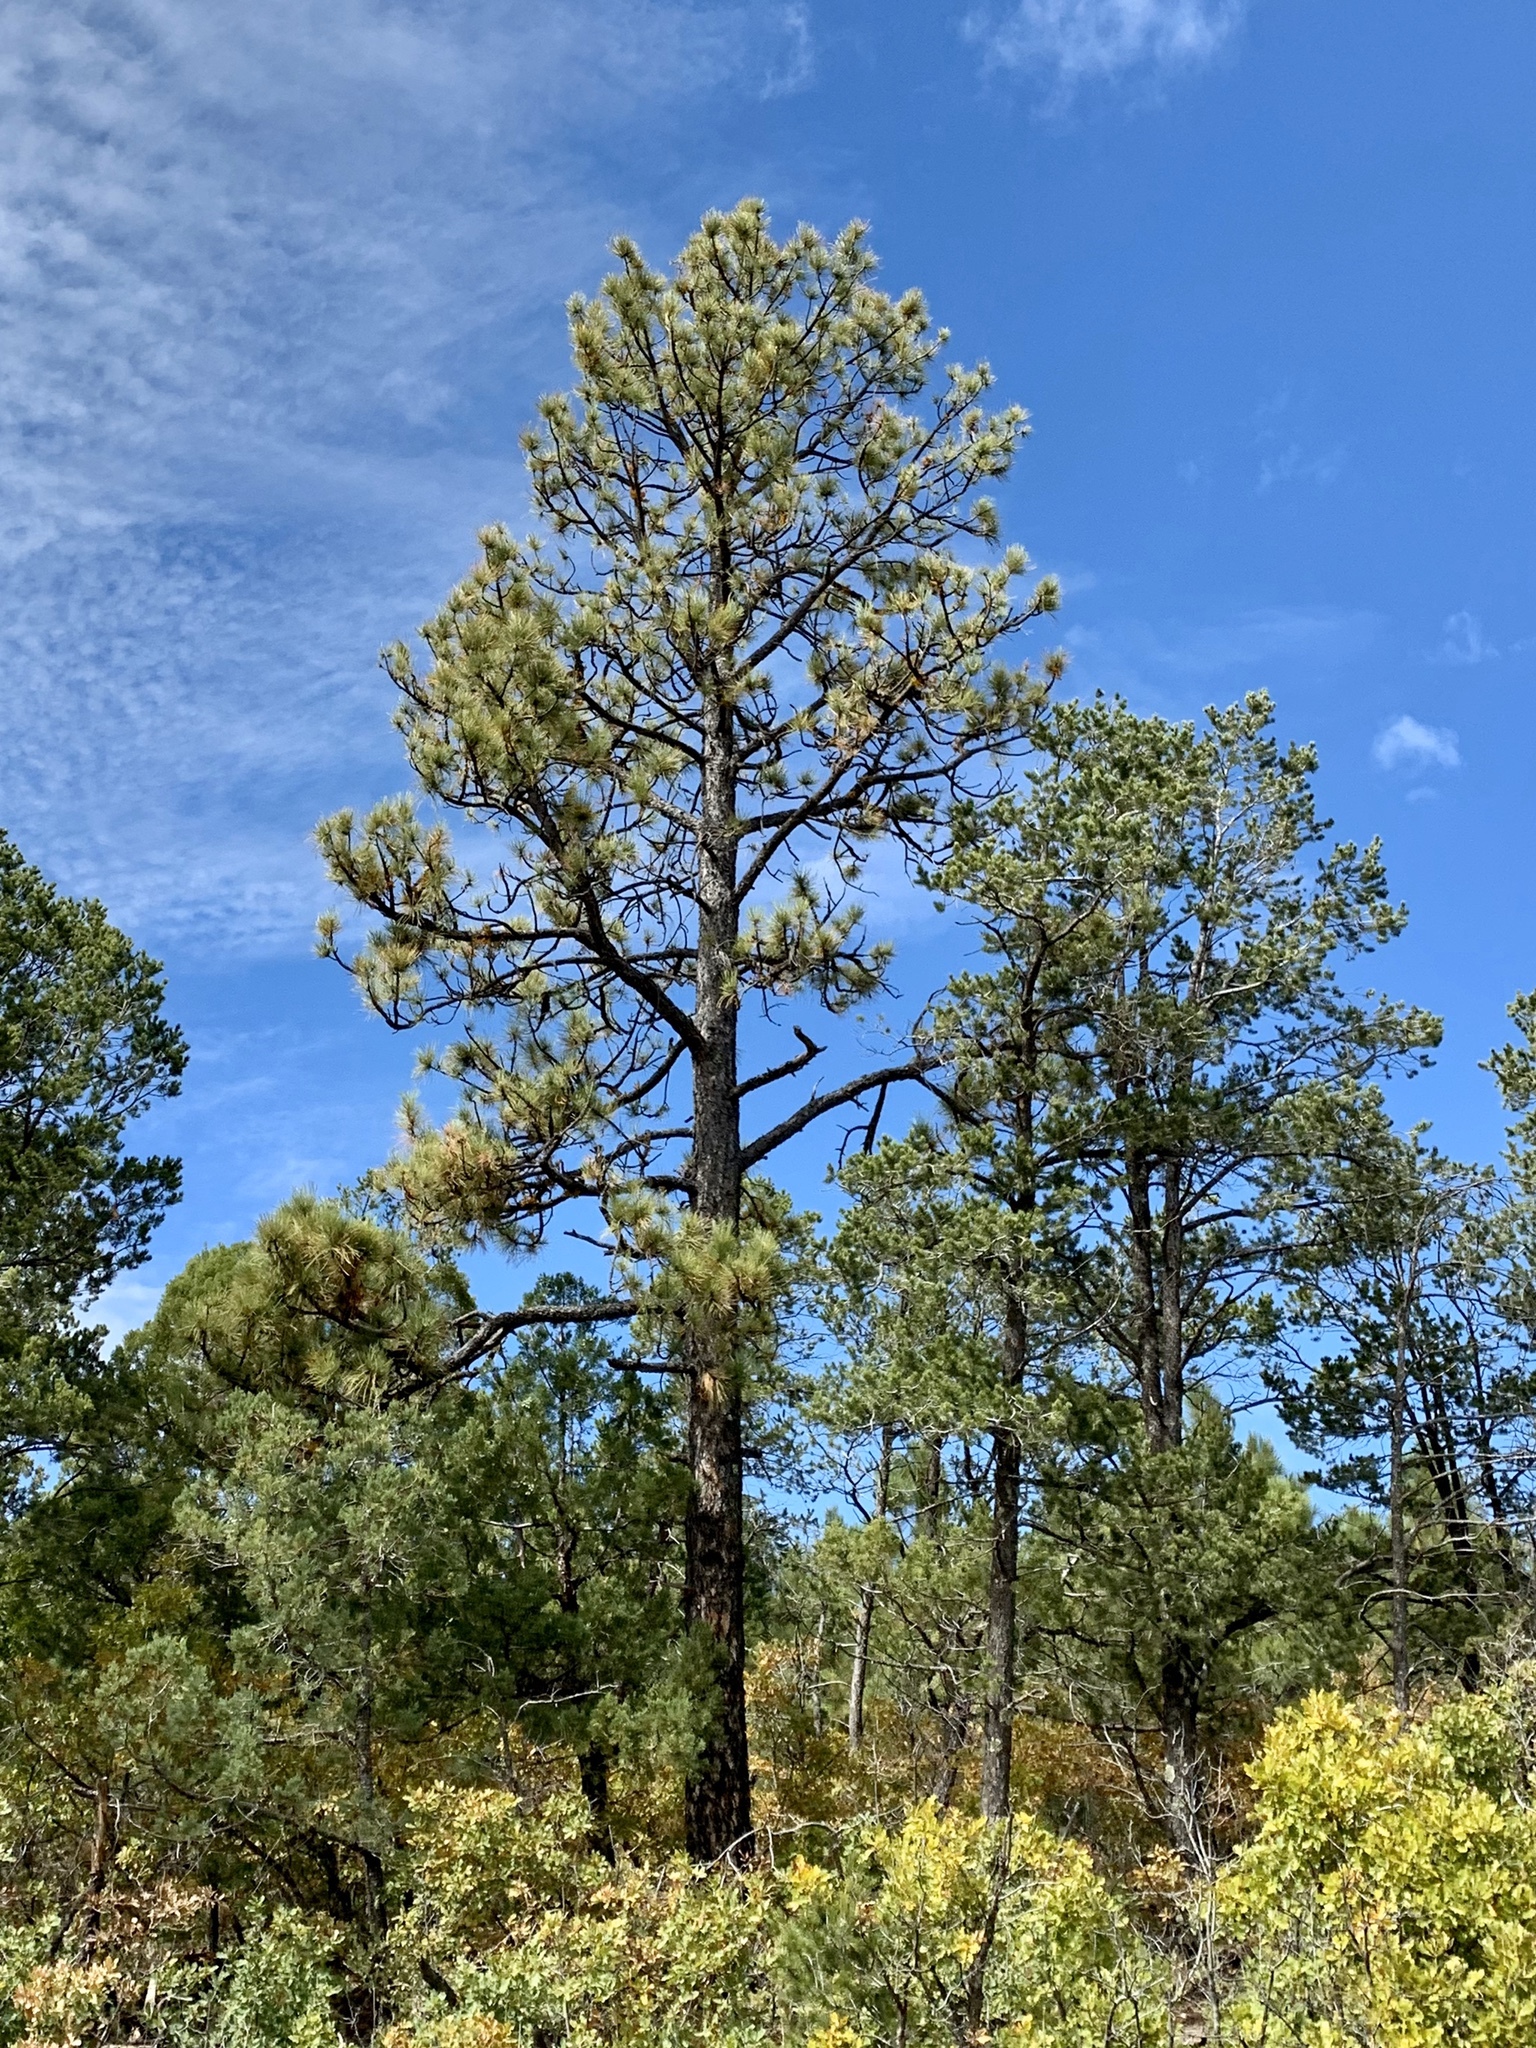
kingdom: Plantae
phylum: Tracheophyta
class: Pinopsida
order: Pinales
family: Pinaceae
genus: Pinus
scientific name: Pinus ponderosa
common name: Western yellow-pine
